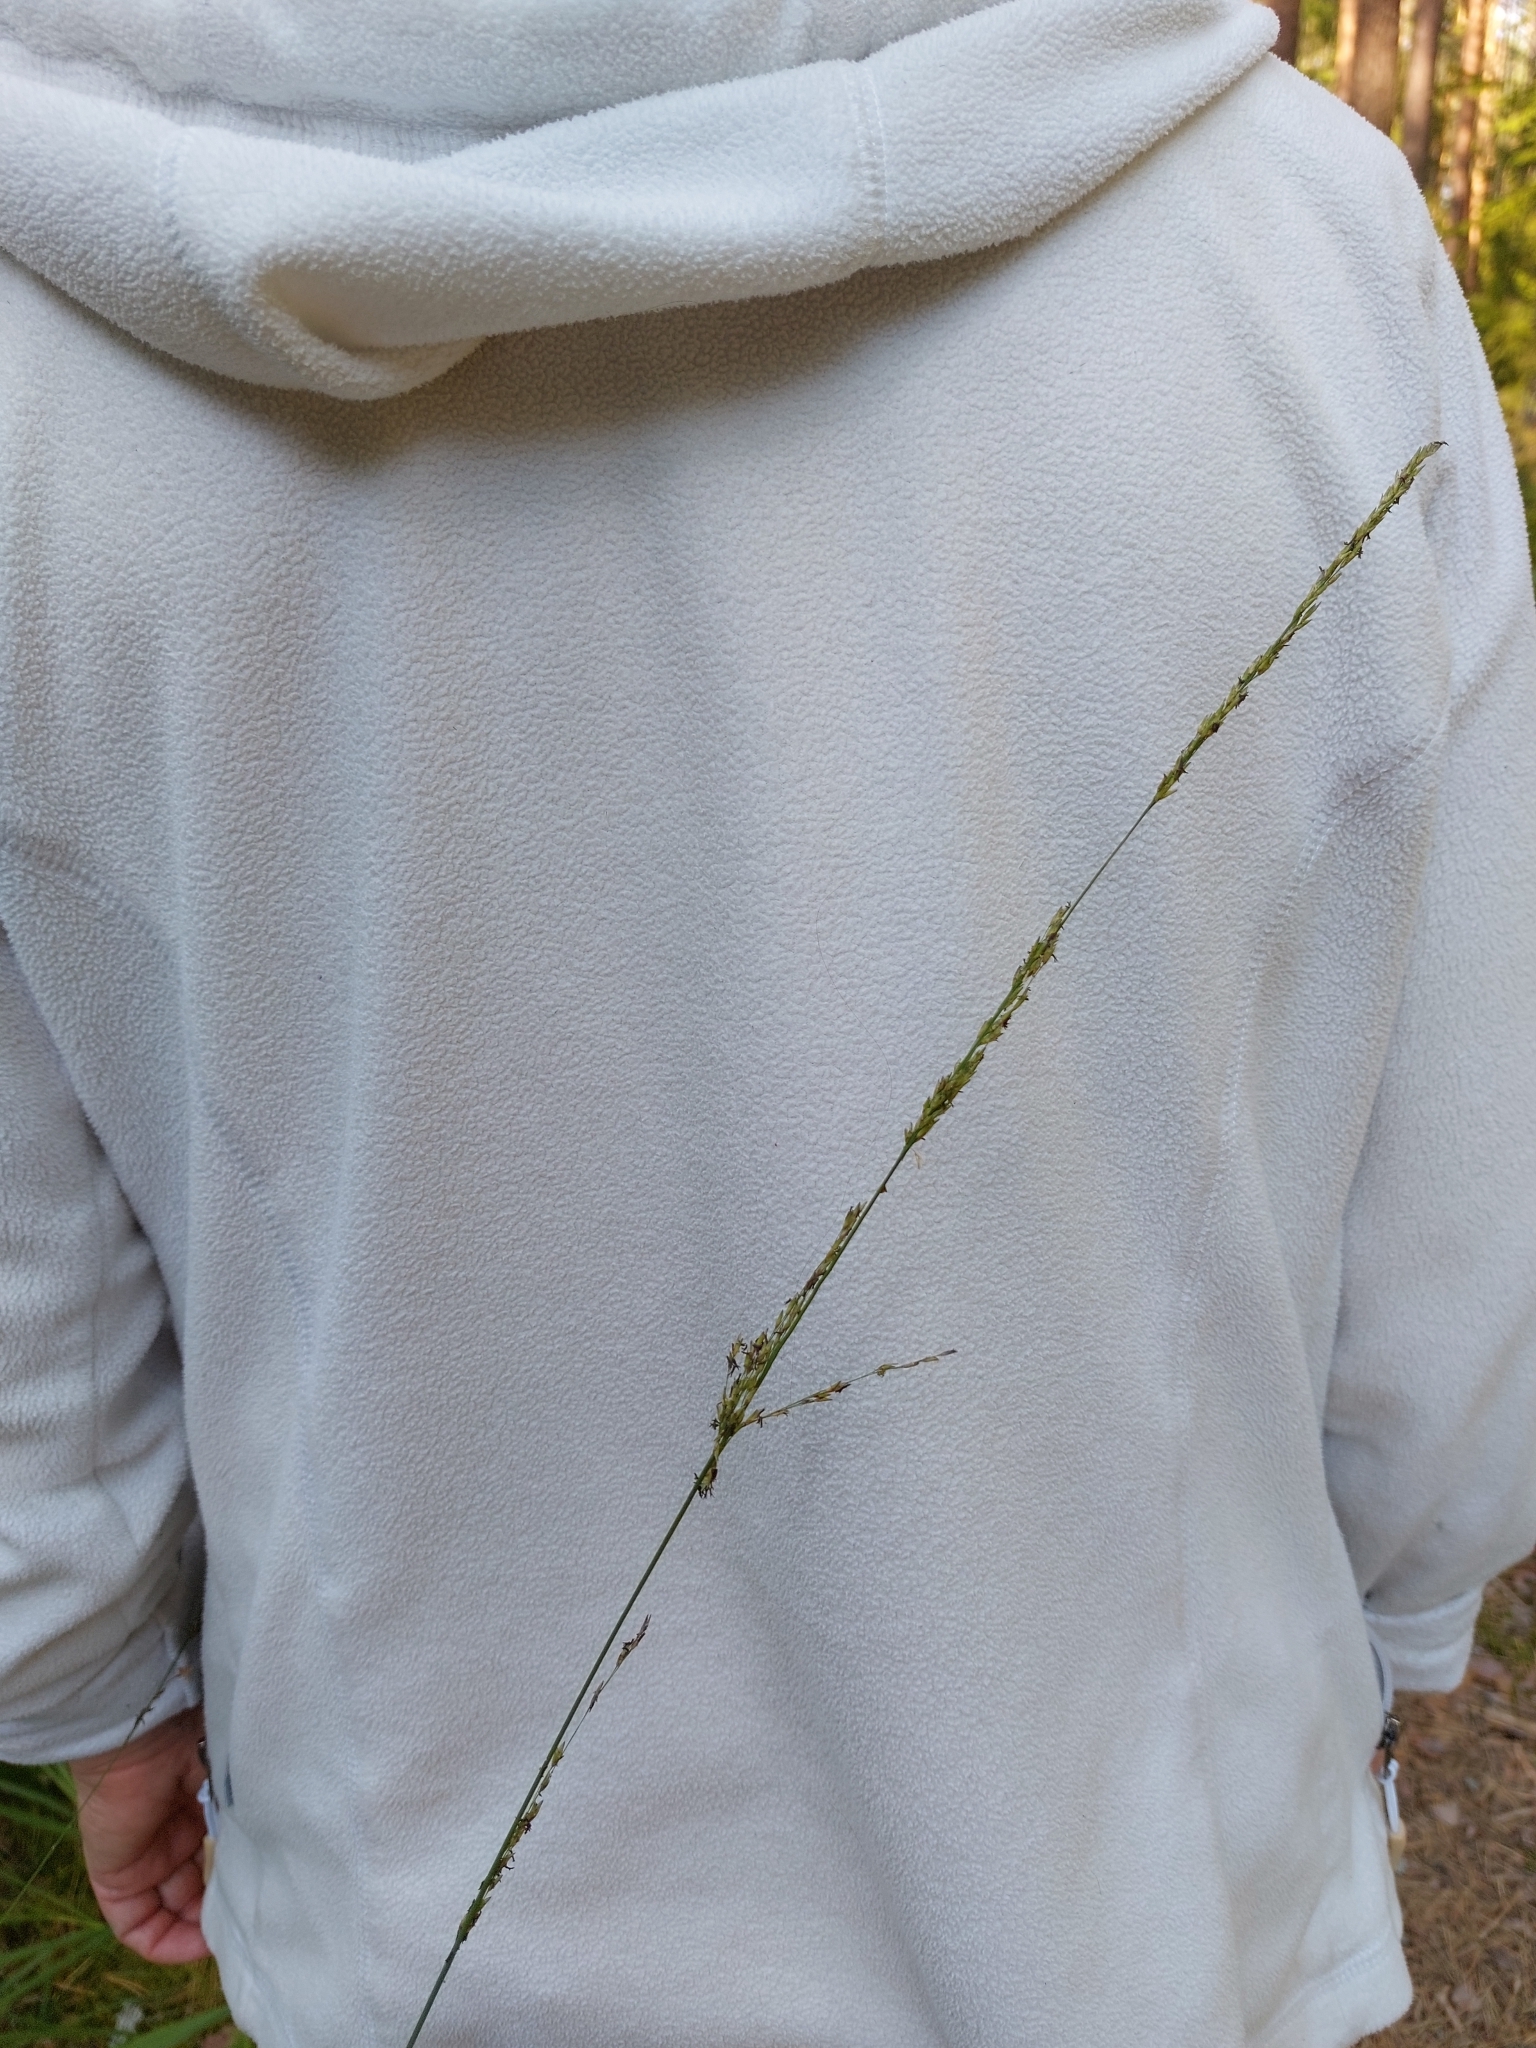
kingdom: Plantae
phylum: Tracheophyta
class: Liliopsida
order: Poales
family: Poaceae
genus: Molinia
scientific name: Molinia caerulea
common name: Purple moor-grass
